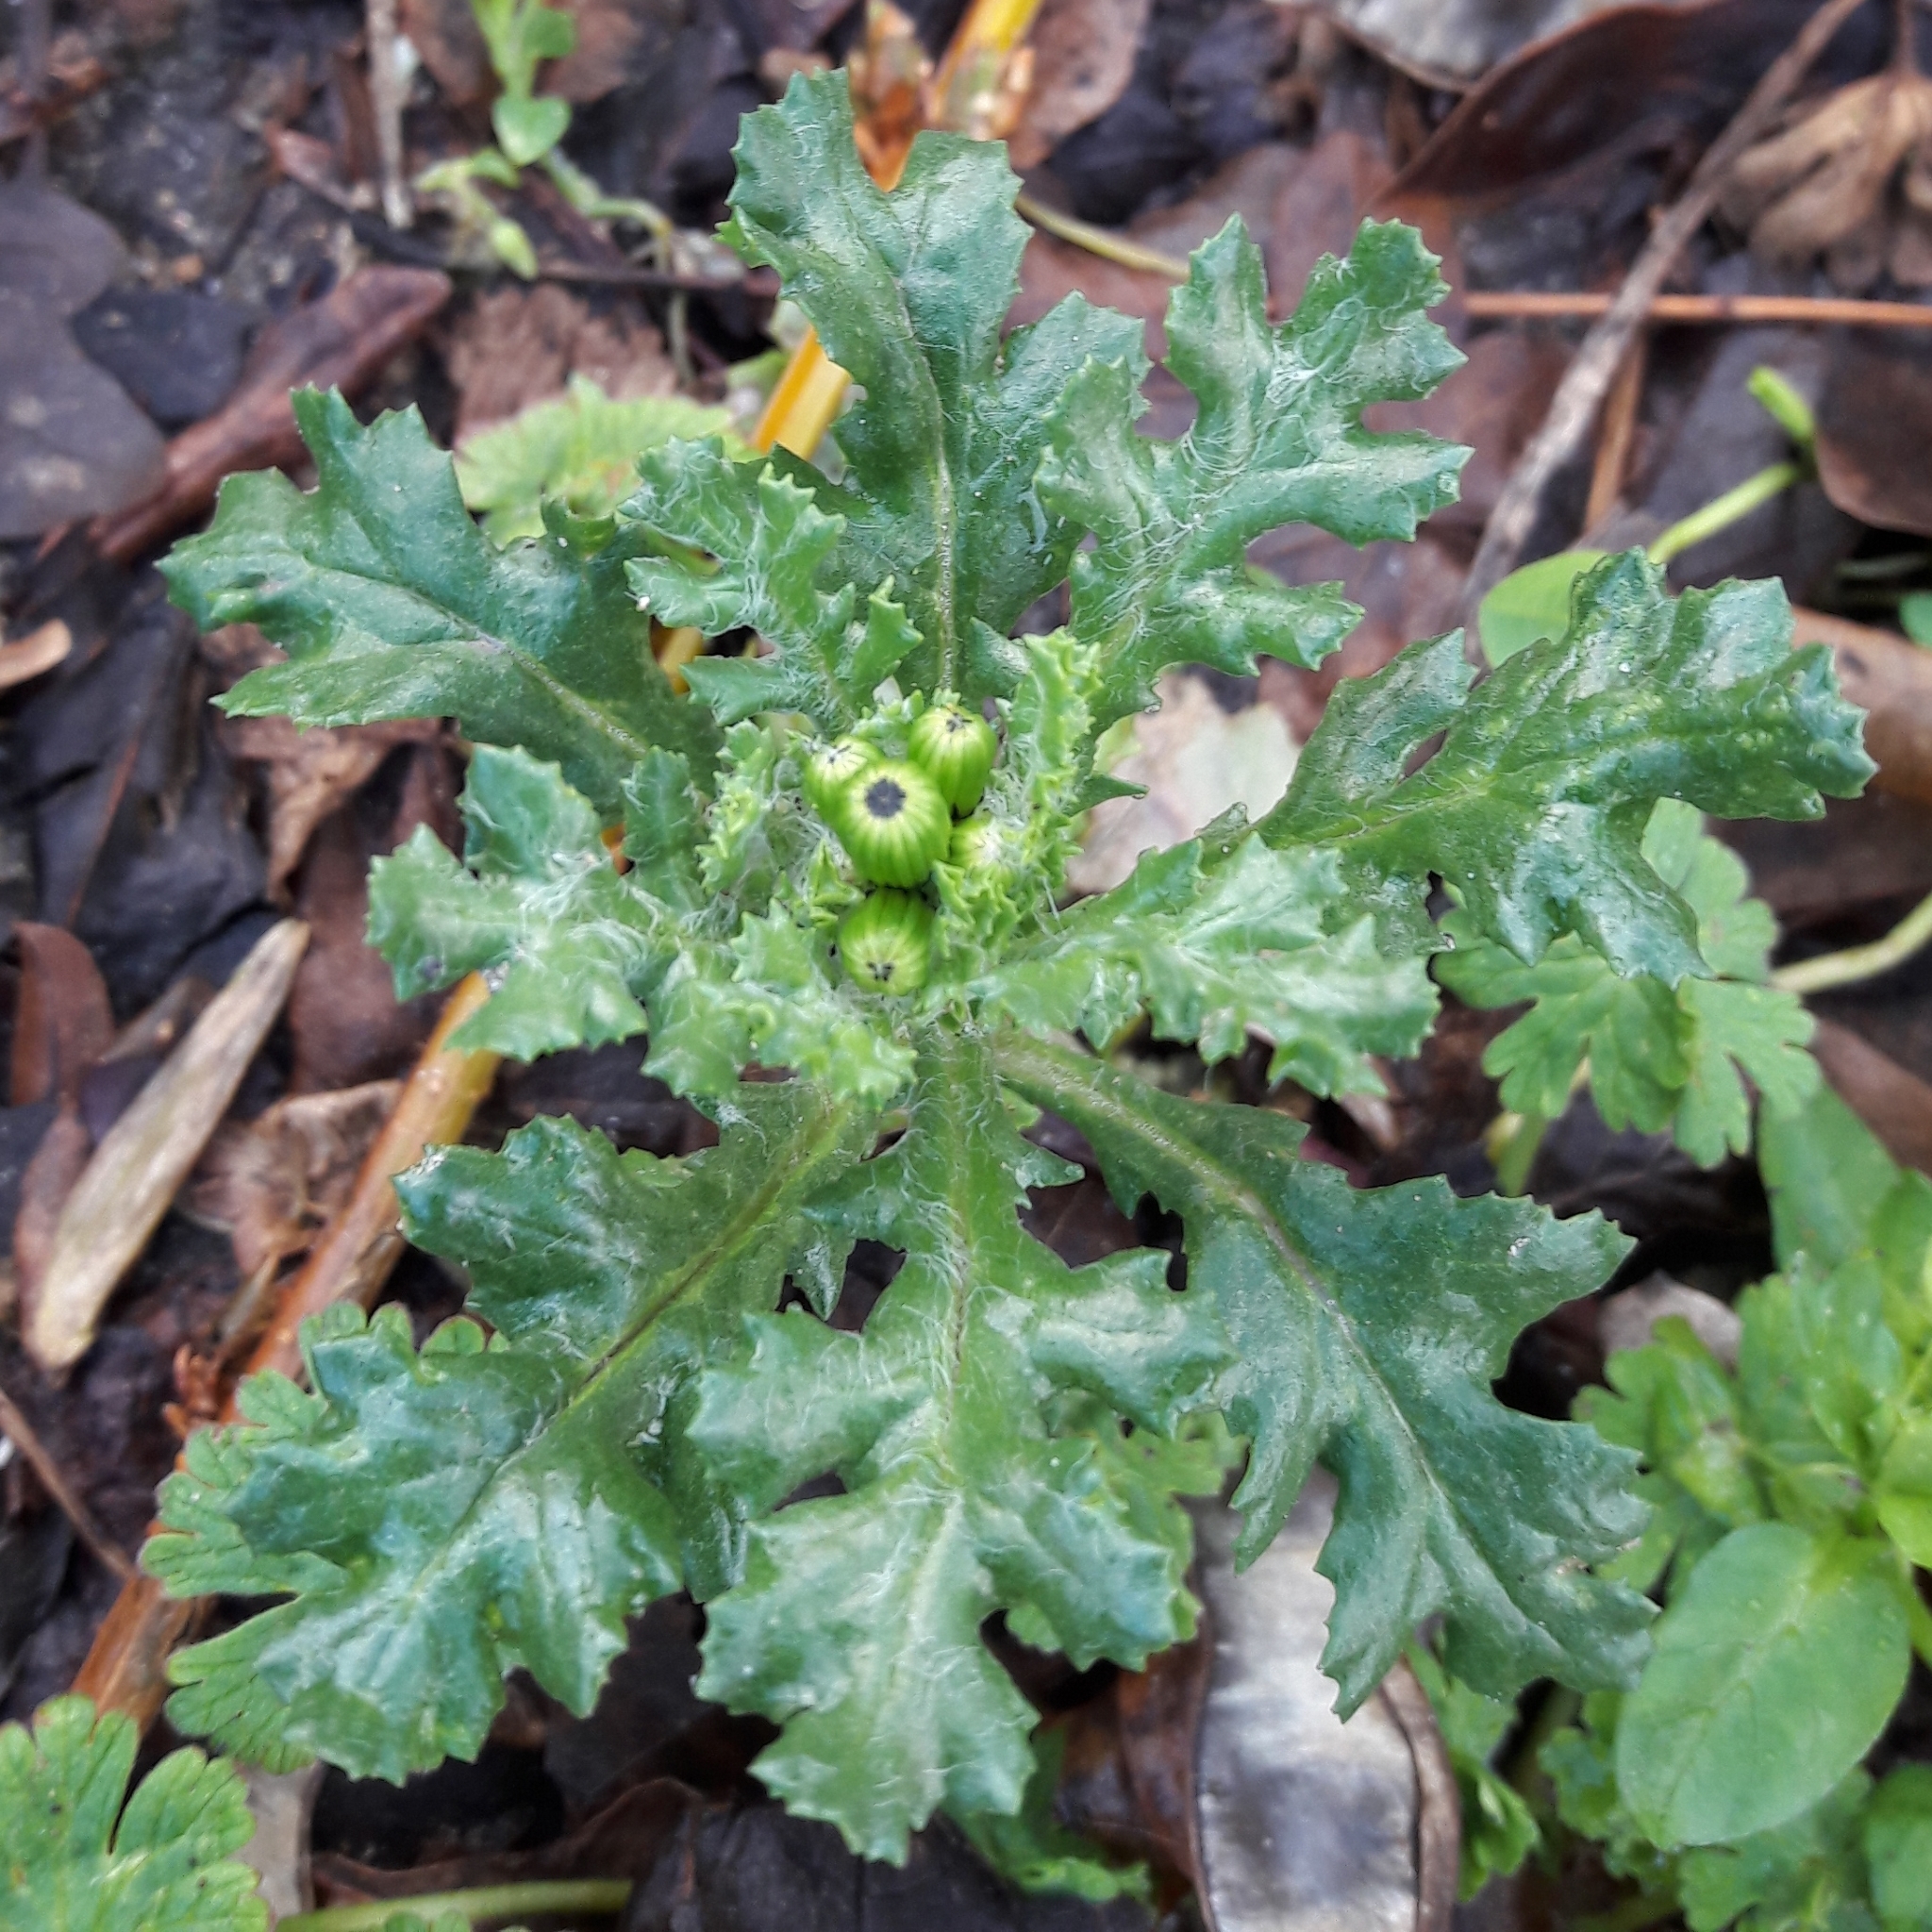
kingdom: Plantae
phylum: Tracheophyta
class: Magnoliopsida
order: Asterales
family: Asteraceae
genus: Senecio
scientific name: Senecio vulgaris
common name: Old-man-in-the-spring
